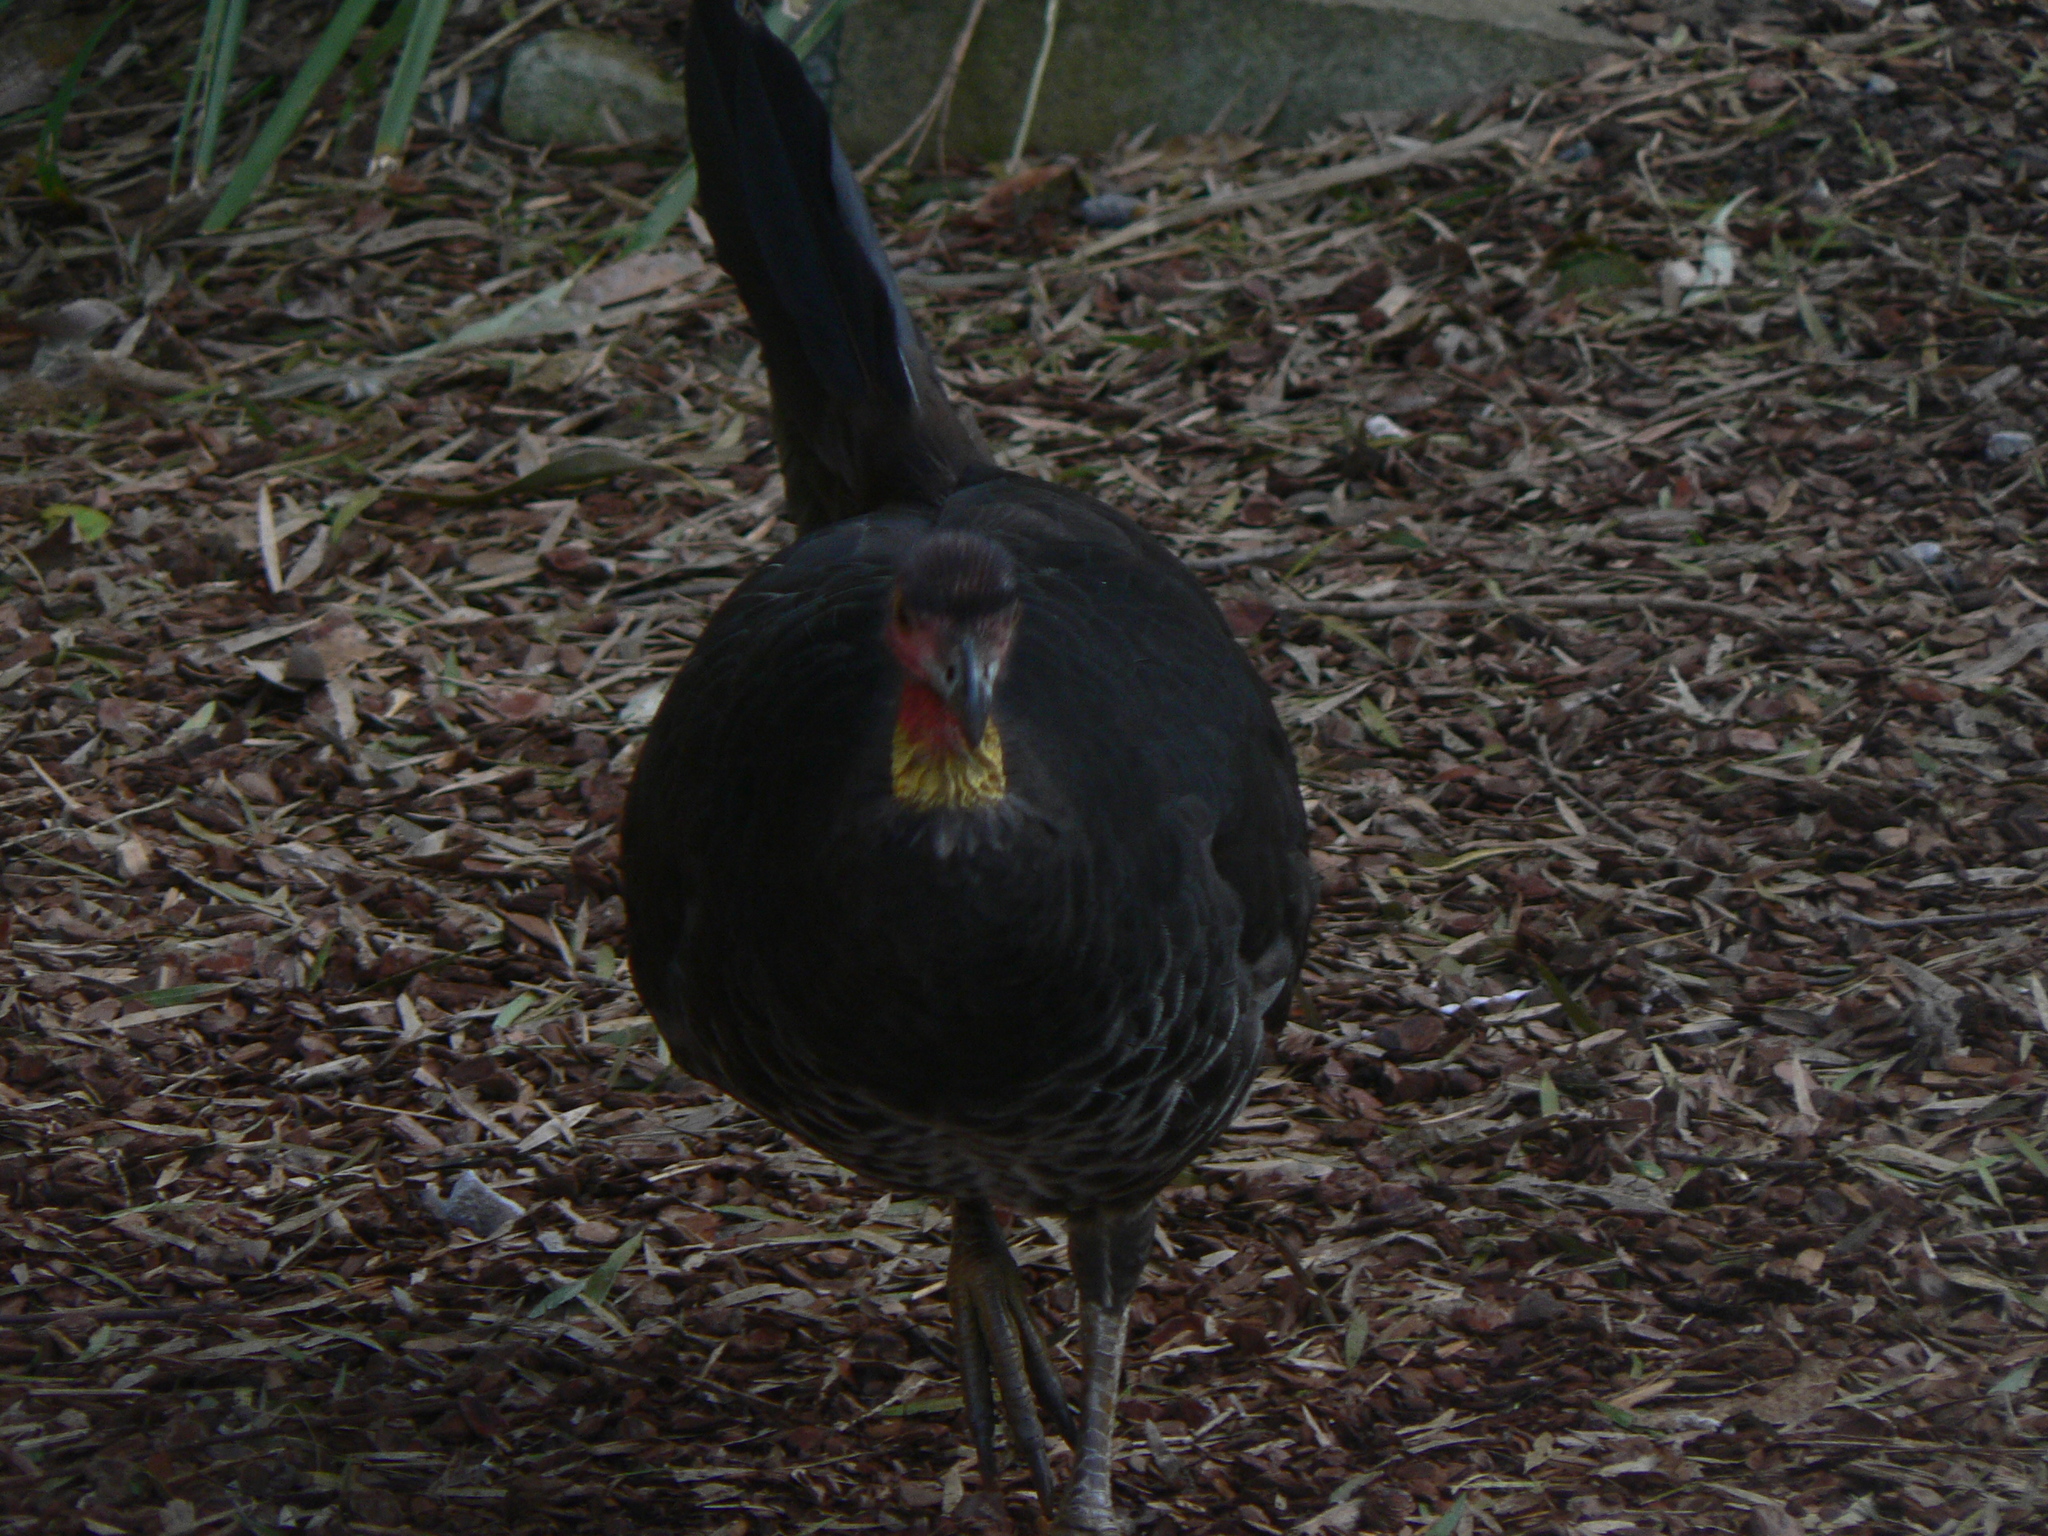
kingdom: Animalia
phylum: Chordata
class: Aves
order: Galliformes
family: Megapodiidae
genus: Alectura
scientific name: Alectura lathami
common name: Australian brushturkey
